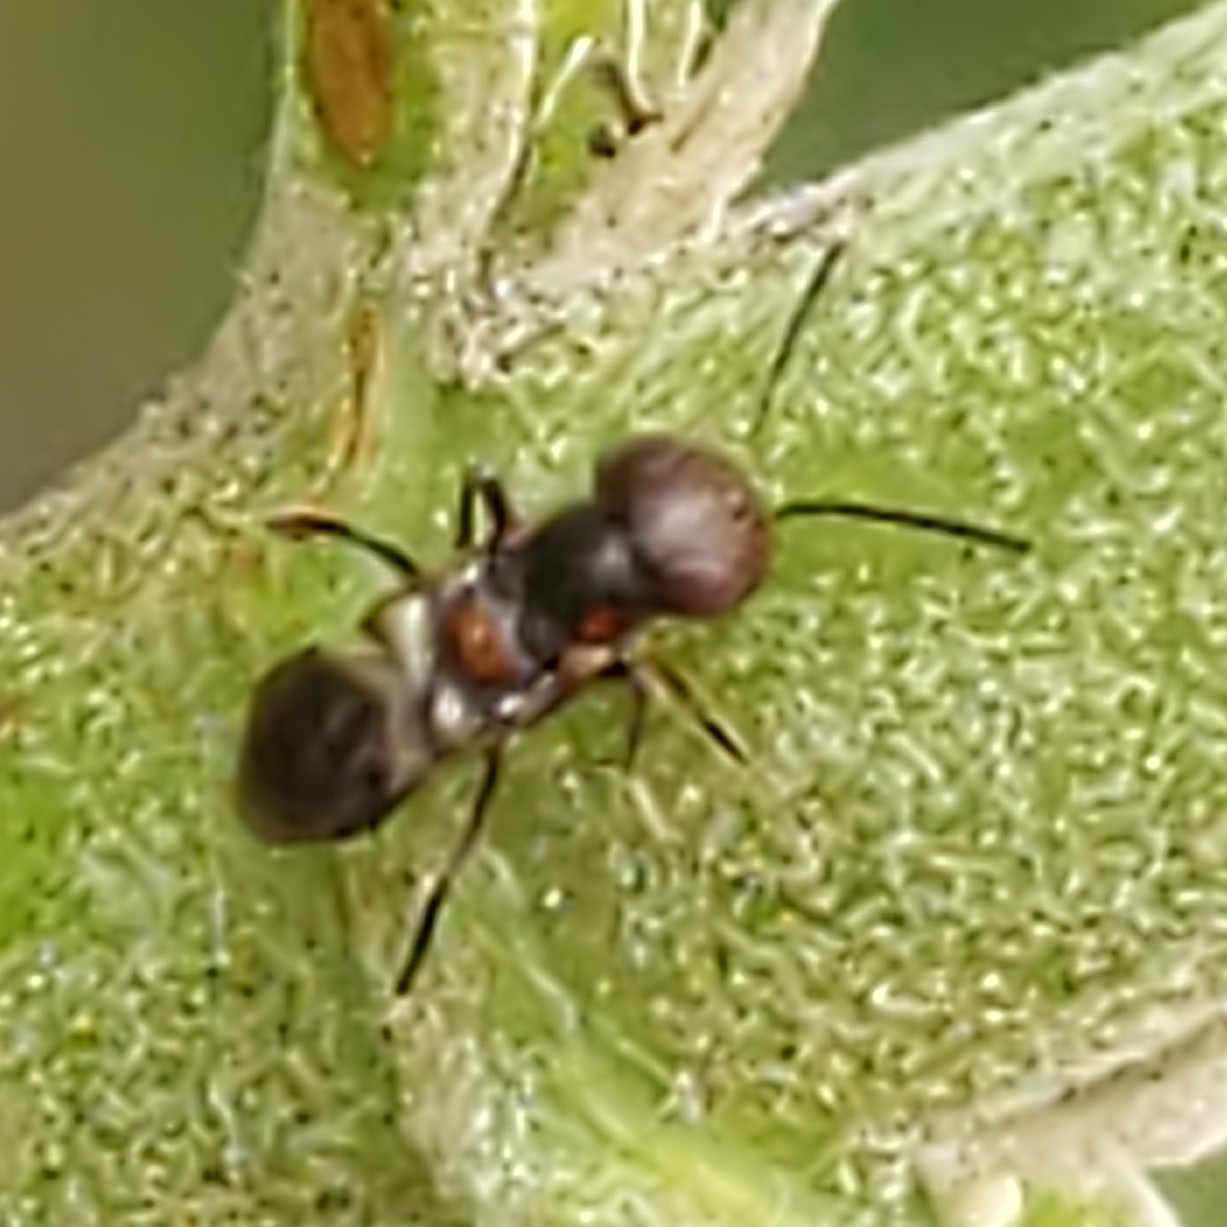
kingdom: Animalia
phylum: Arthropoda
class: Insecta
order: Hymenoptera
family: Encyrtidae
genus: Encyrtus
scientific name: Encyrtus
